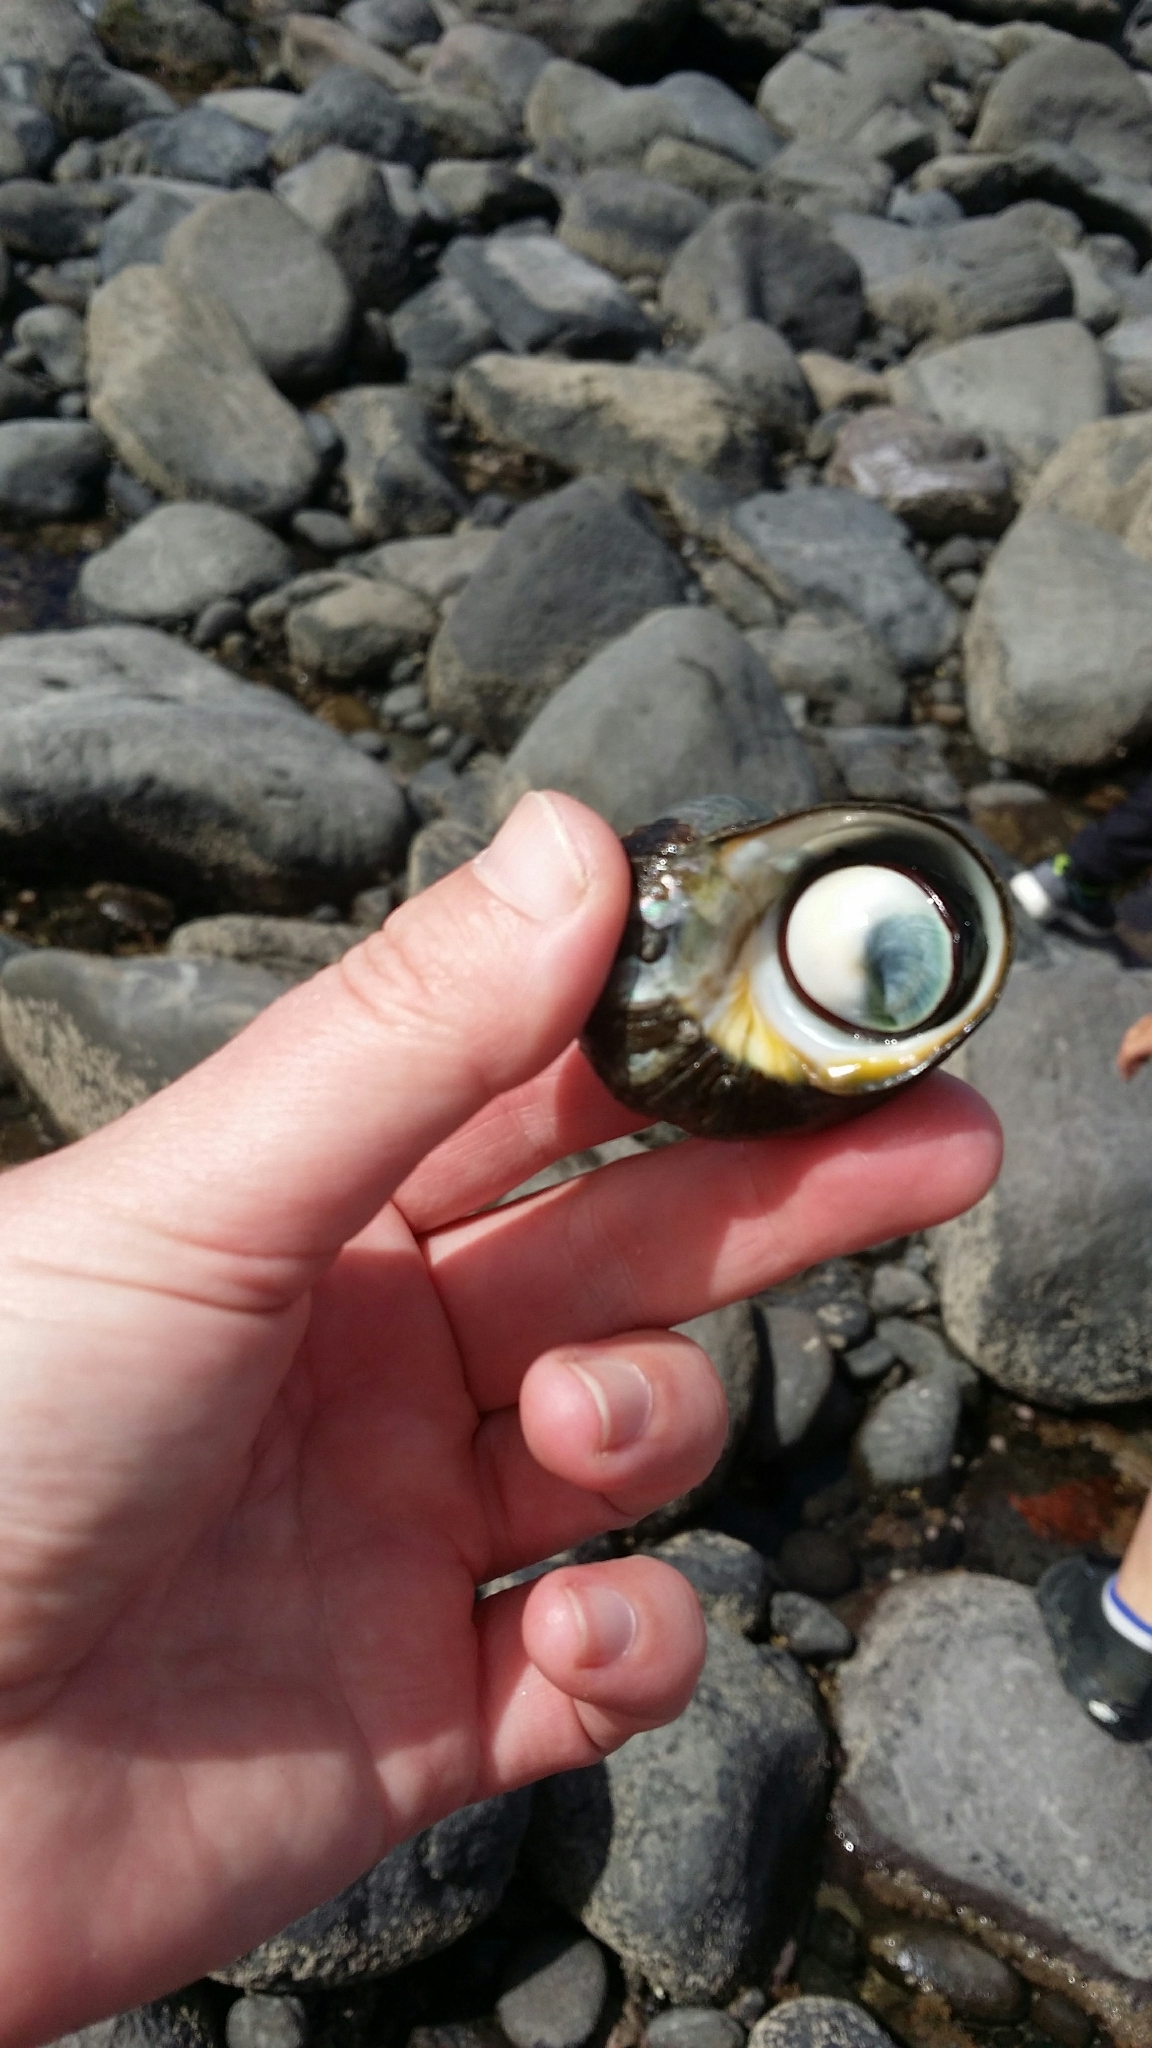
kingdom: Animalia
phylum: Mollusca
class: Gastropoda
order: Trochida
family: Turbinidae
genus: Lunella
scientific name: Lunella smaragda
